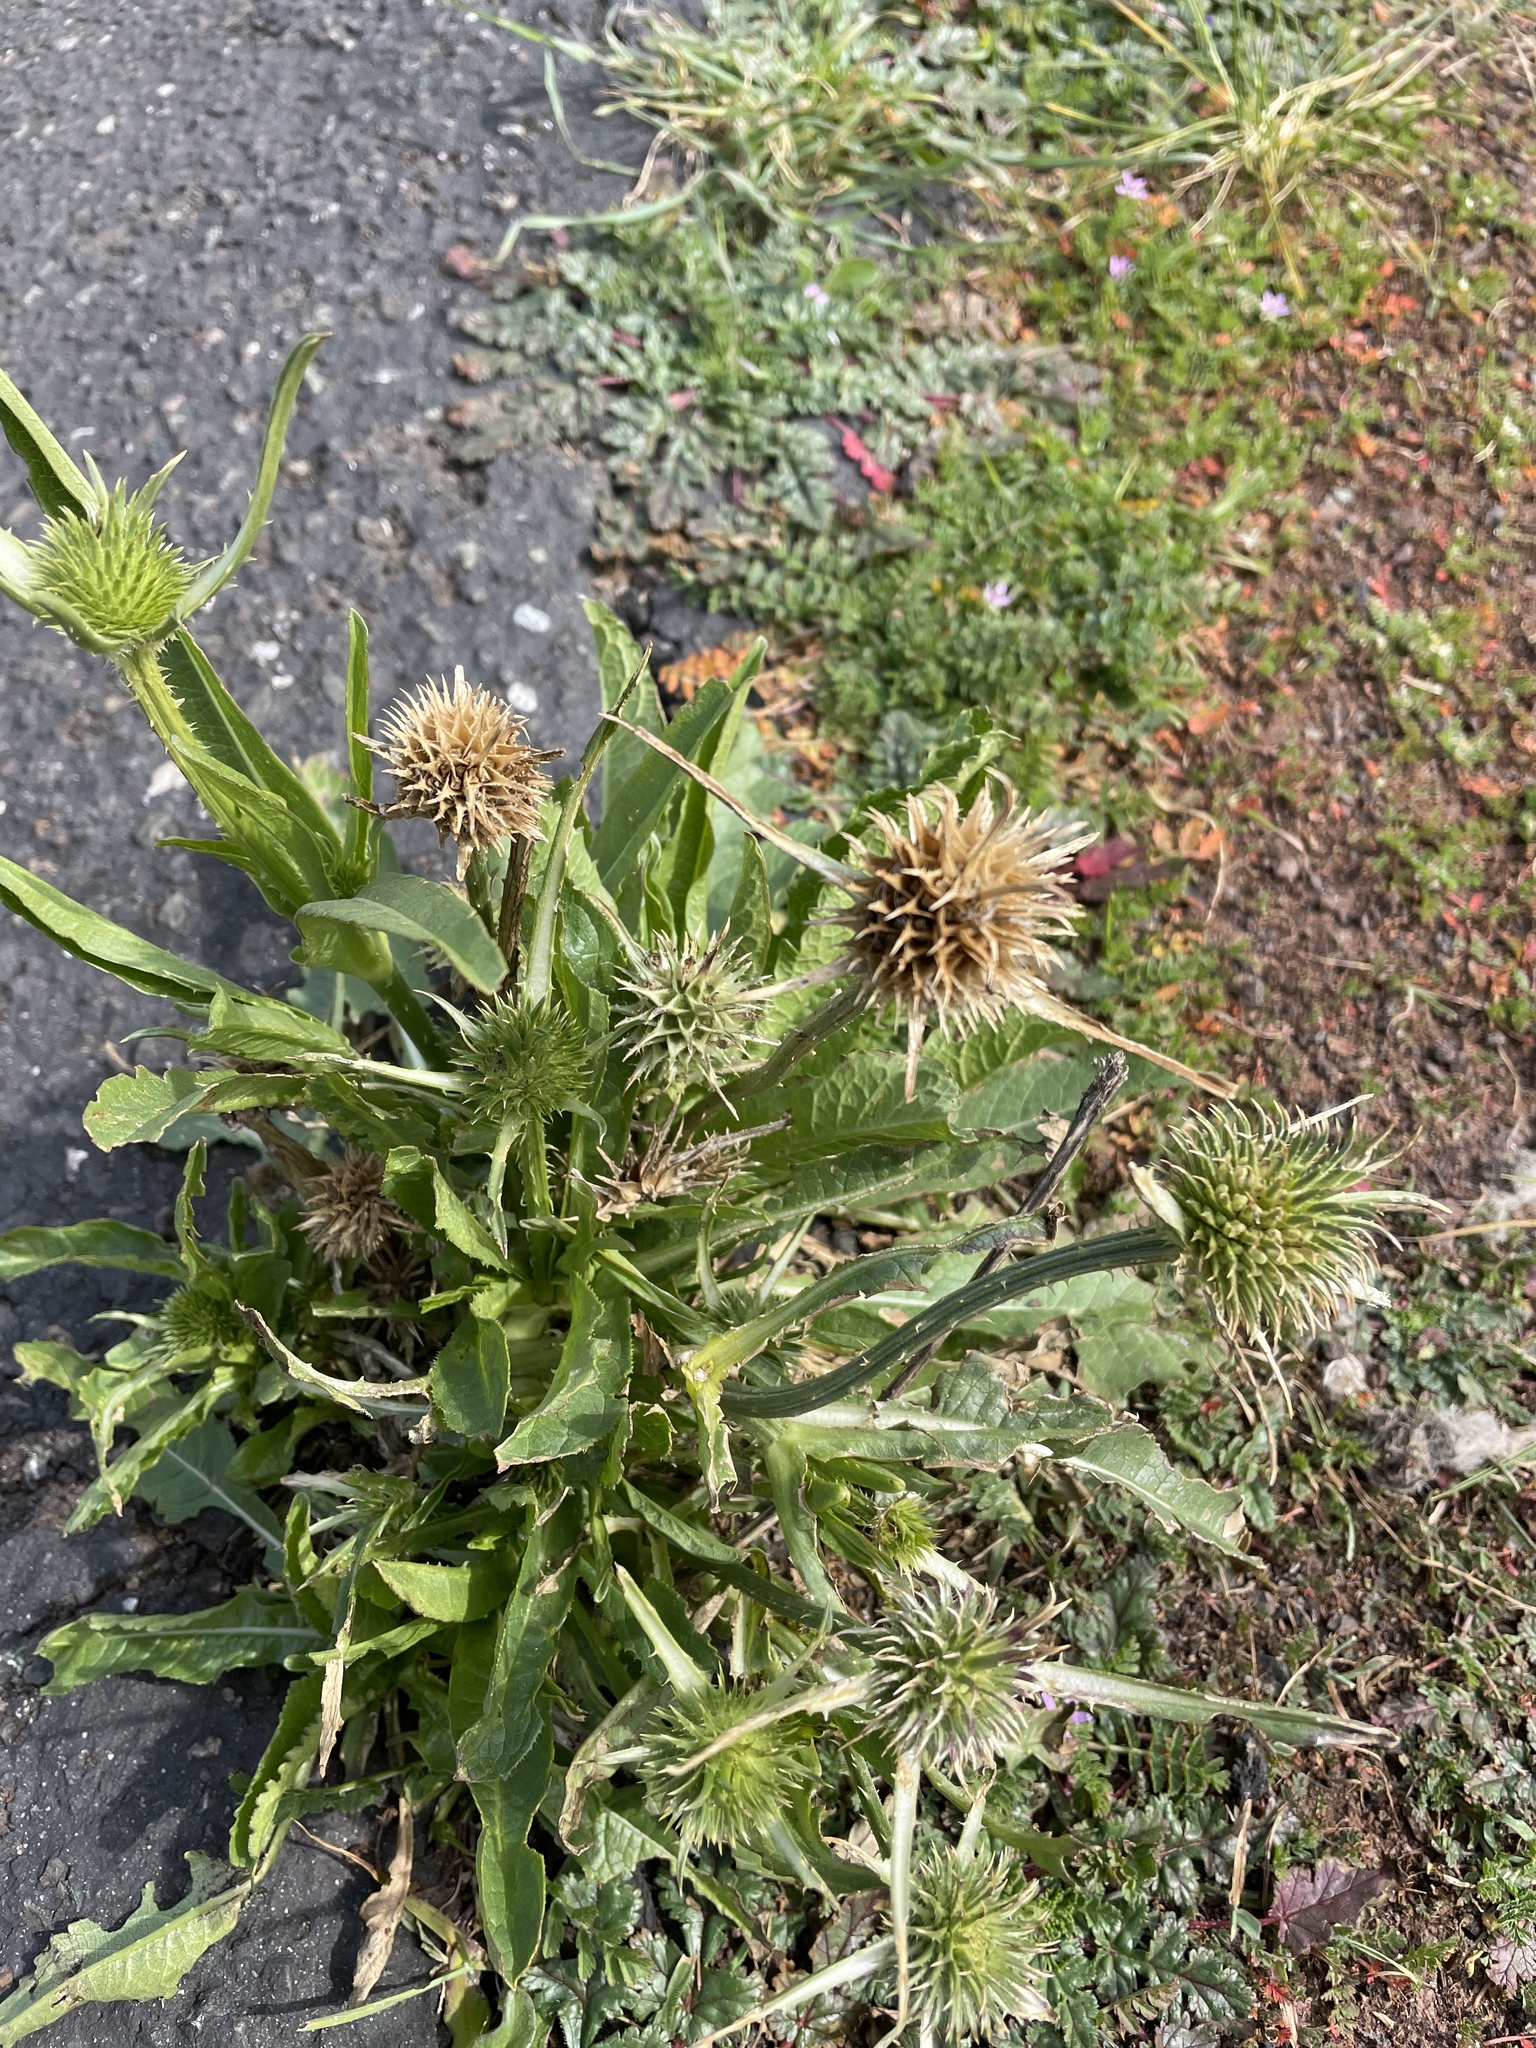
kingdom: Plantae
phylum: Tracheophyta
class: Magnoliopsida
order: Dipsacales
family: Caprifoliaceae
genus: Dipsacus
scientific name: Dipsacus sativus
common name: Fuller's teasel
